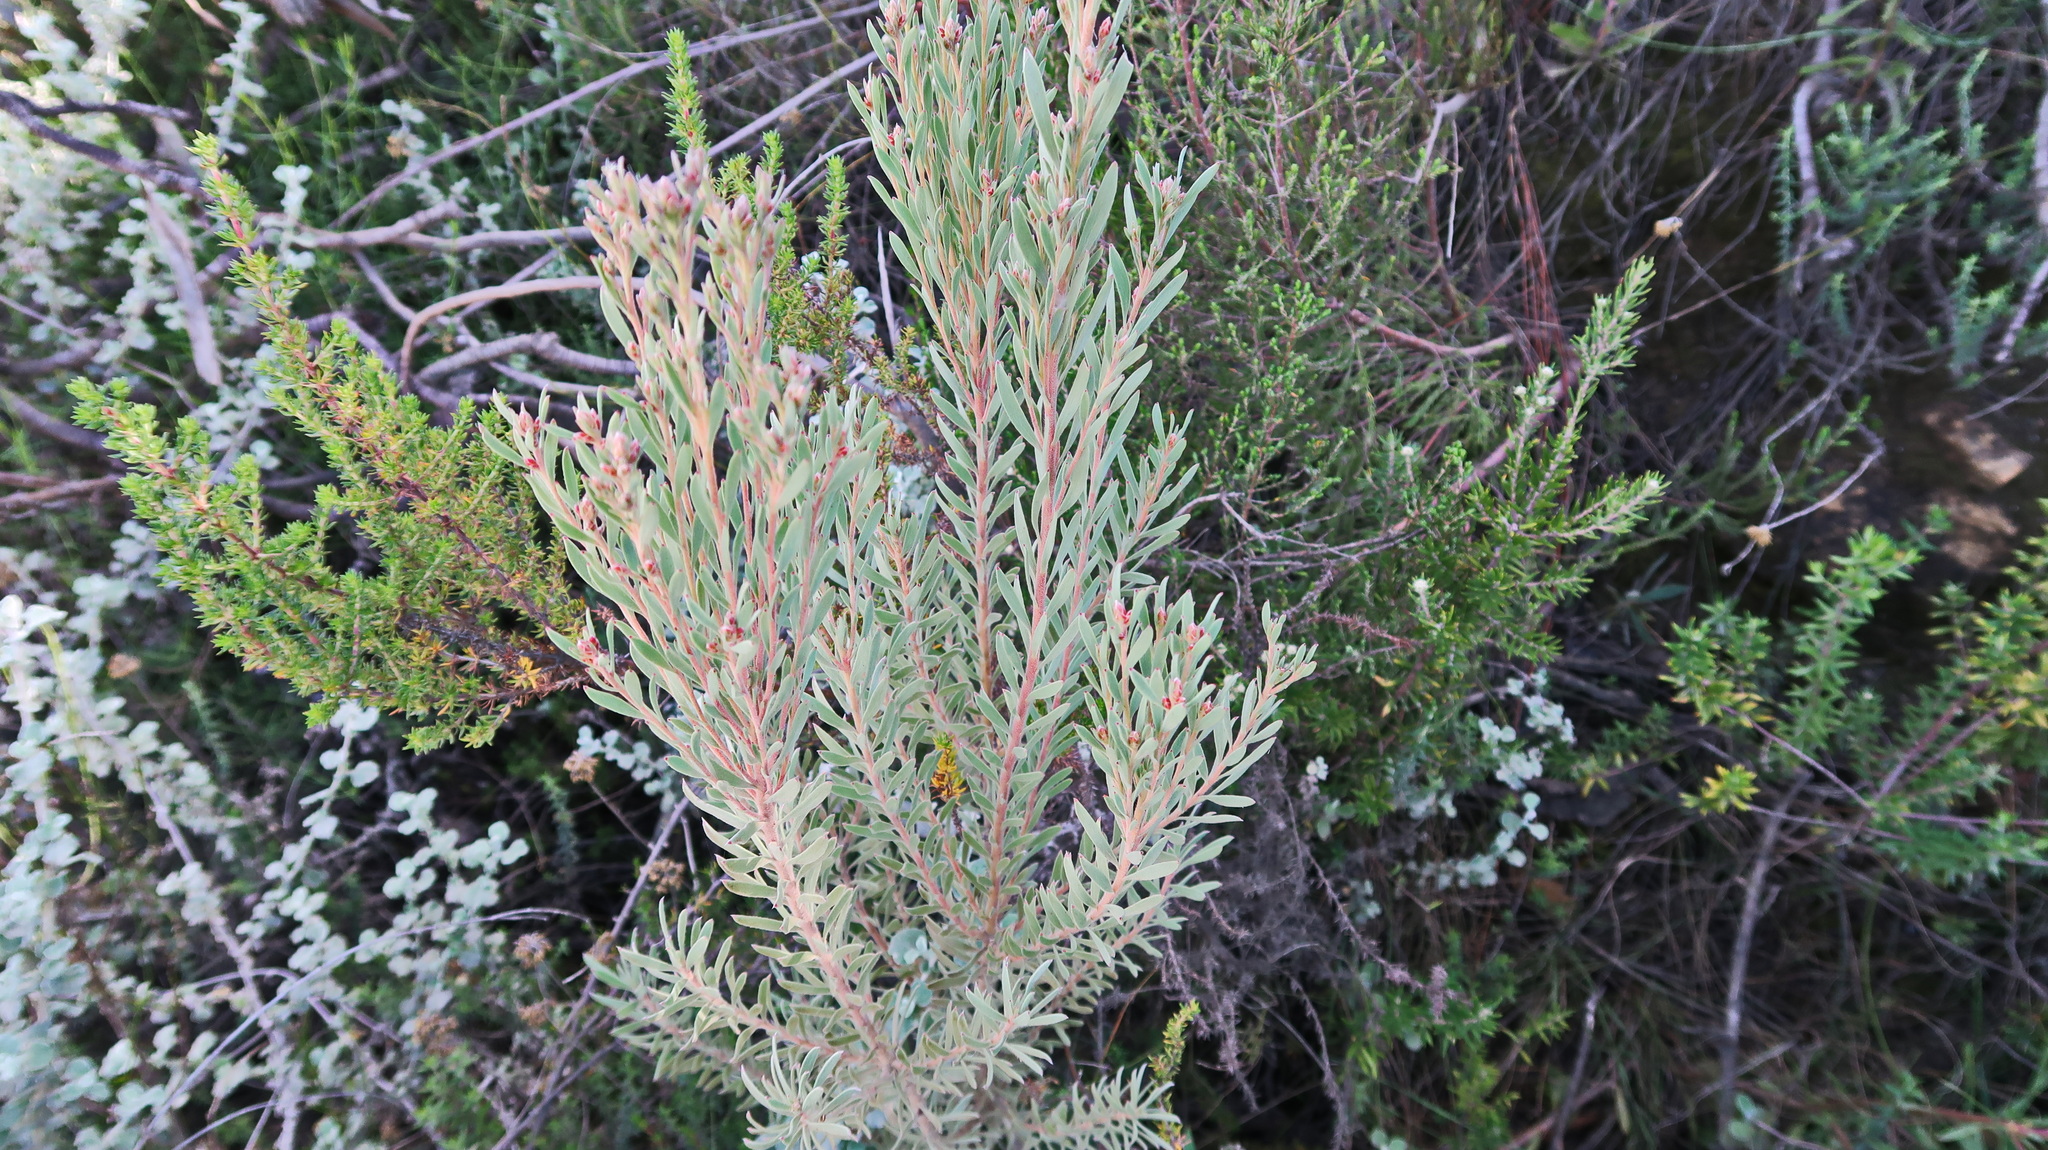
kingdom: Plantae
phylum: Tracheophyta
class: Magnoliopsida
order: Proteales
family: Proteaceae
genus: Leucadendron
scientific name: Leucadendron rubrum
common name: Spinning top
